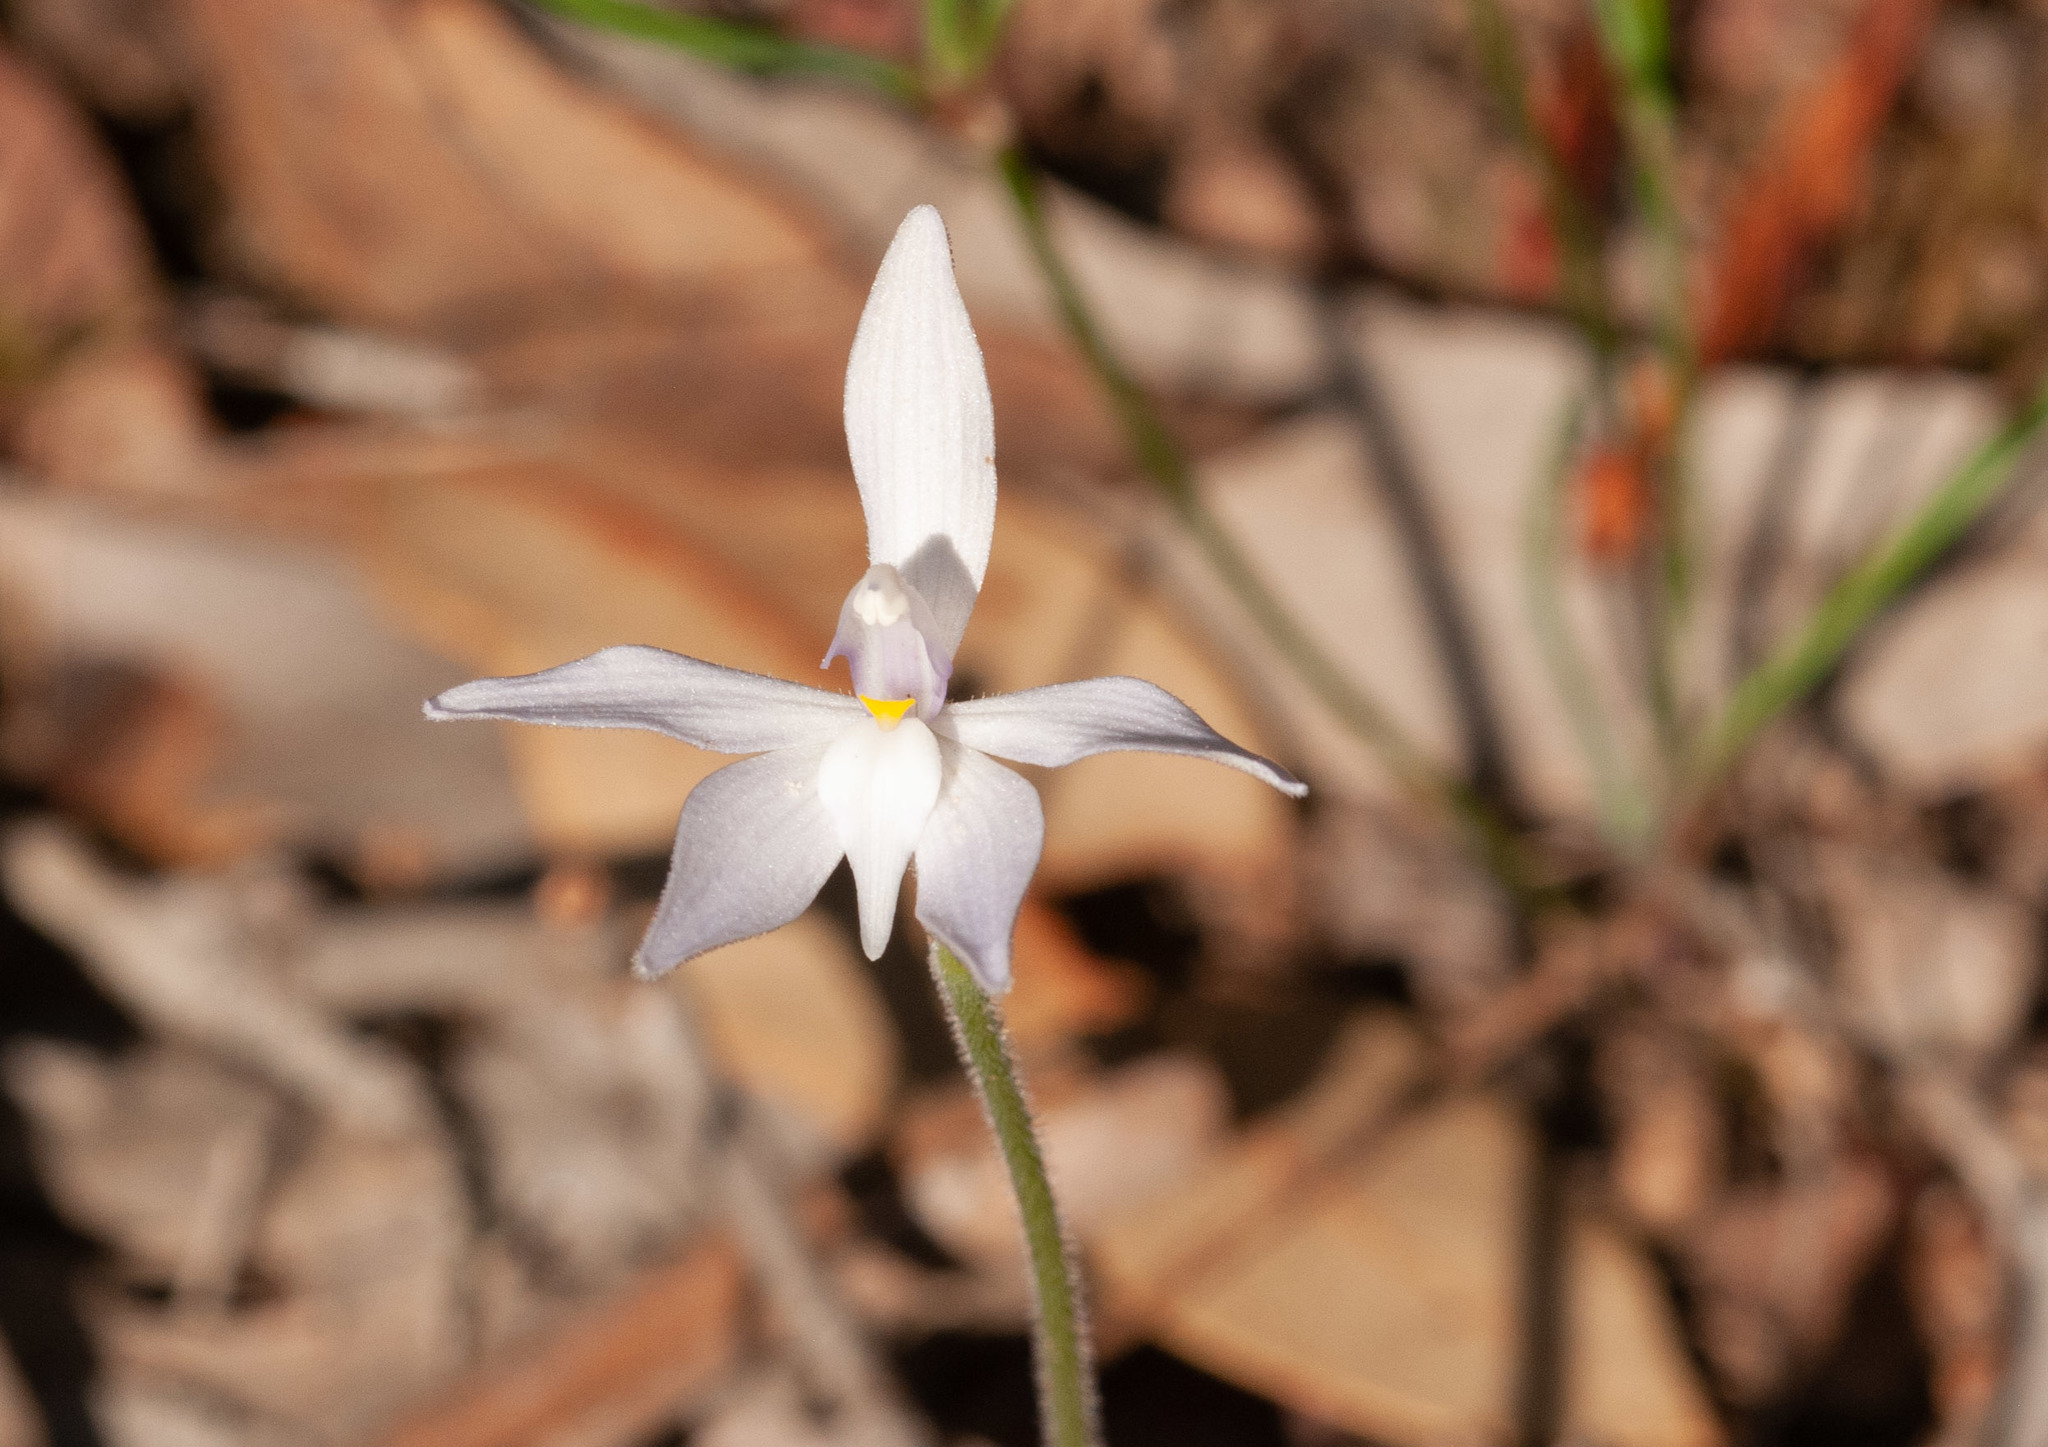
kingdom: Plantae
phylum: Tracheophyta
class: Liliopsida
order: Asparagales
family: Orchidaceae
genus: Caladenia
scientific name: Caladenia major
